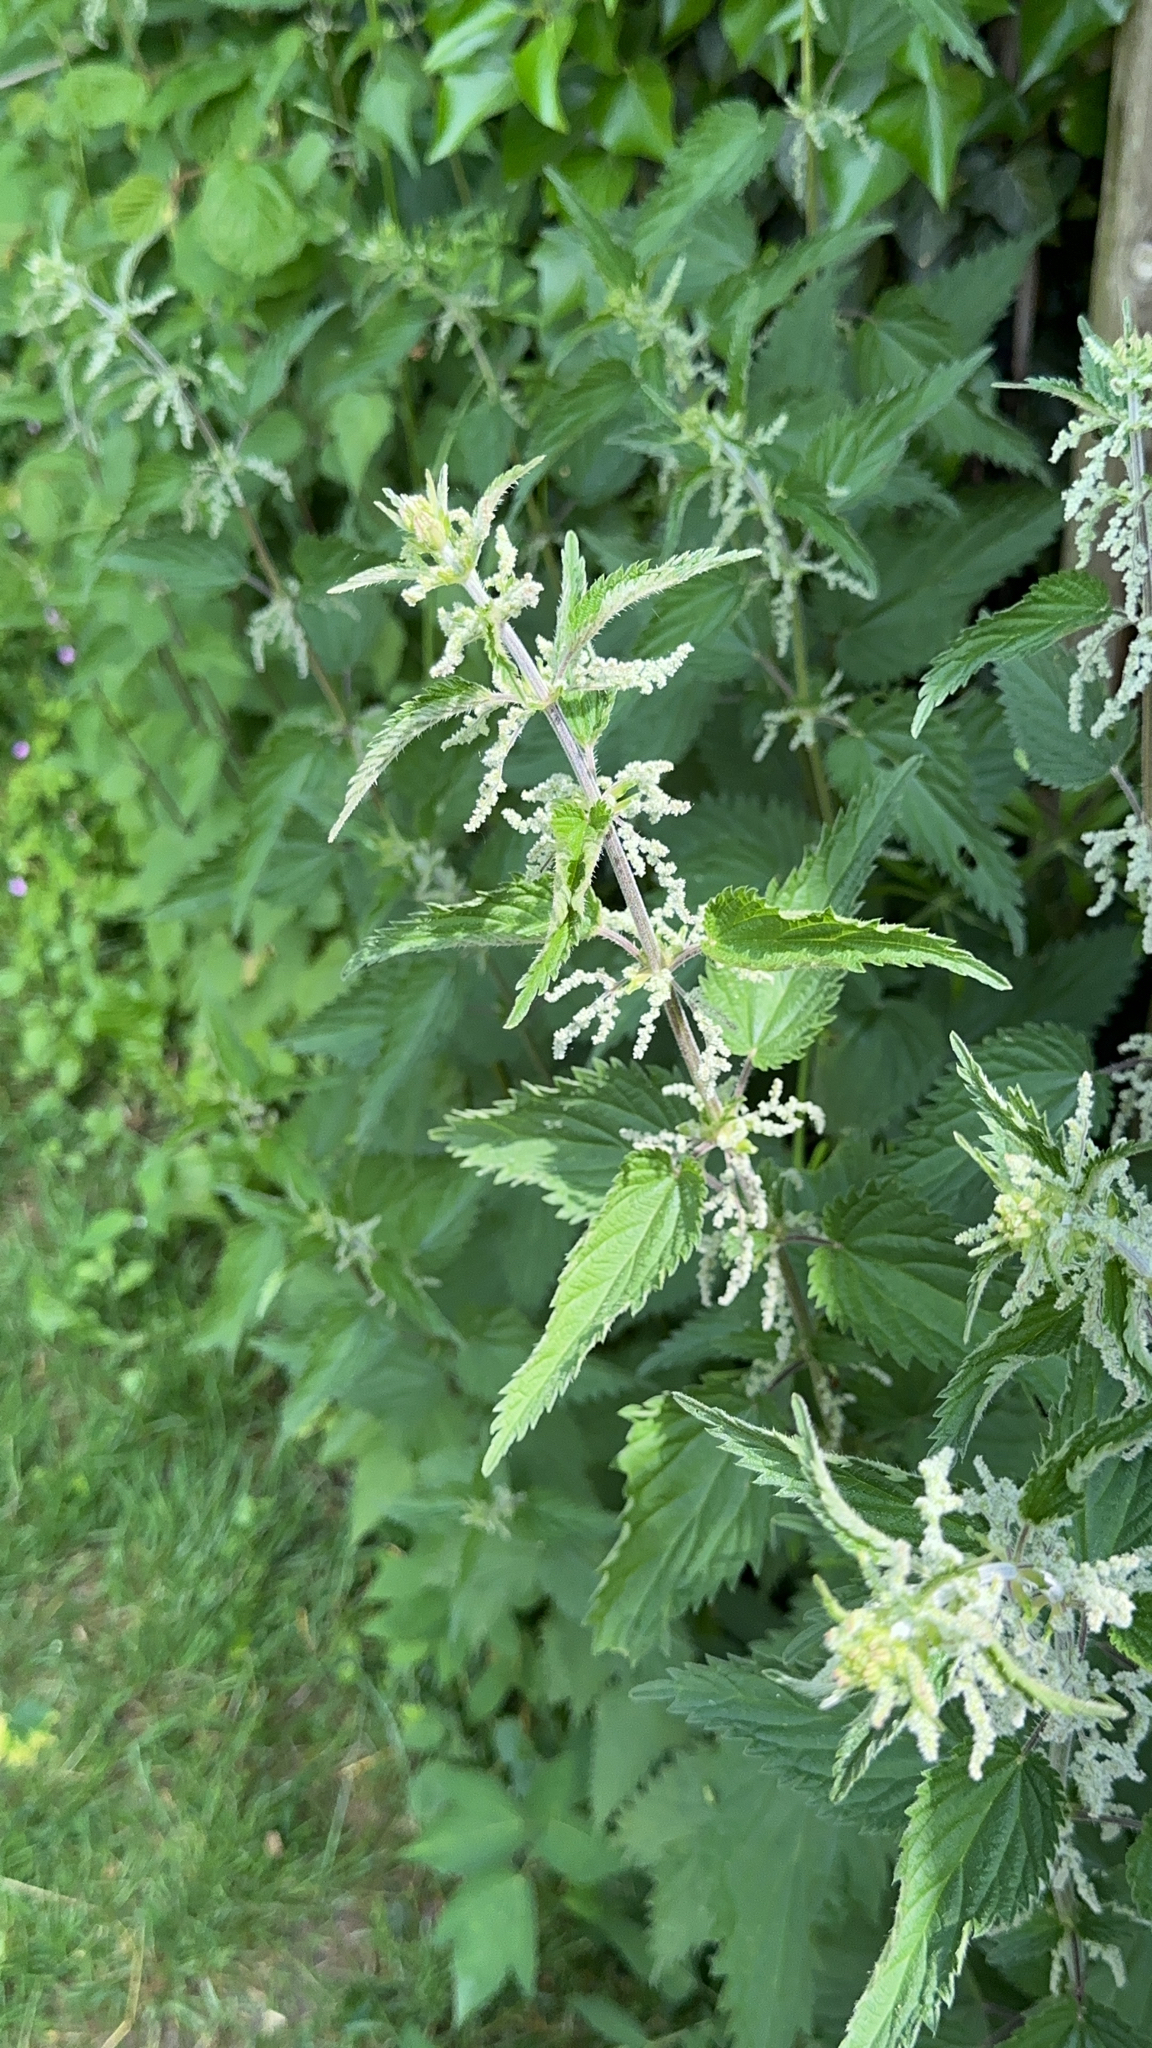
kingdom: Plantae
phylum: Tracheophyta
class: Magnoliopsida
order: Rosales
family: Urticaceae
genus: Urtica
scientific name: Urtica dioica
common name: Common nettle
